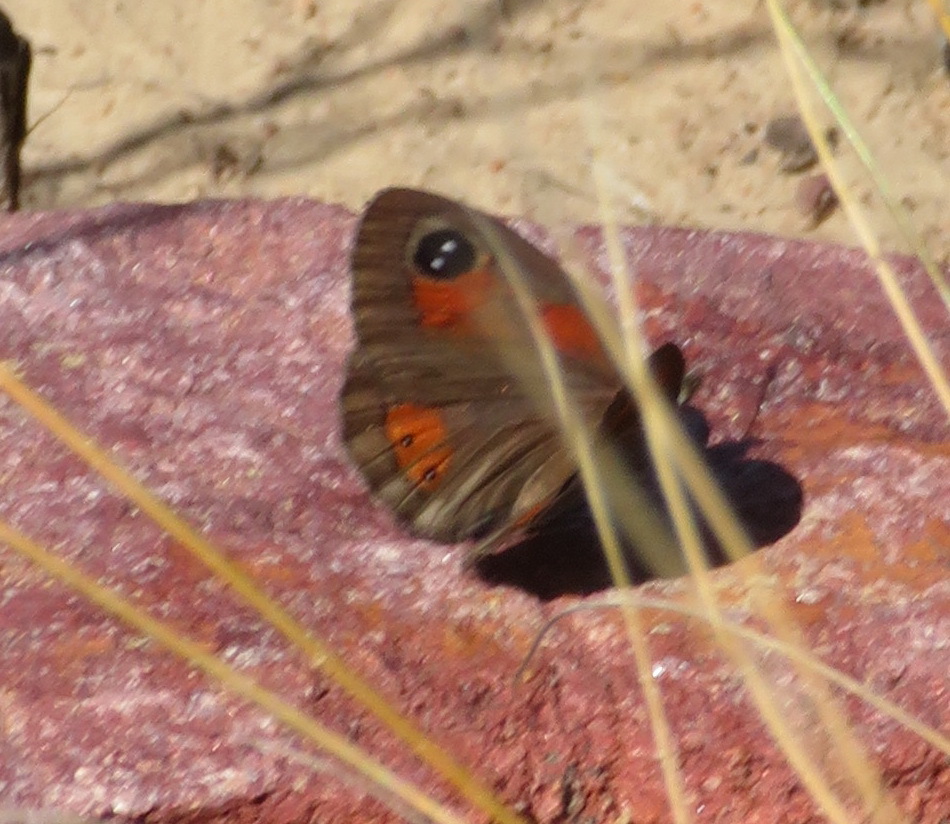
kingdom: Animalia
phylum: Arthropoda
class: Insecta
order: Lepidoptera
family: Nymphalidae
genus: Pseudonympha
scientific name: Pseudonympha trimenii
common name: Trimen’s brown
